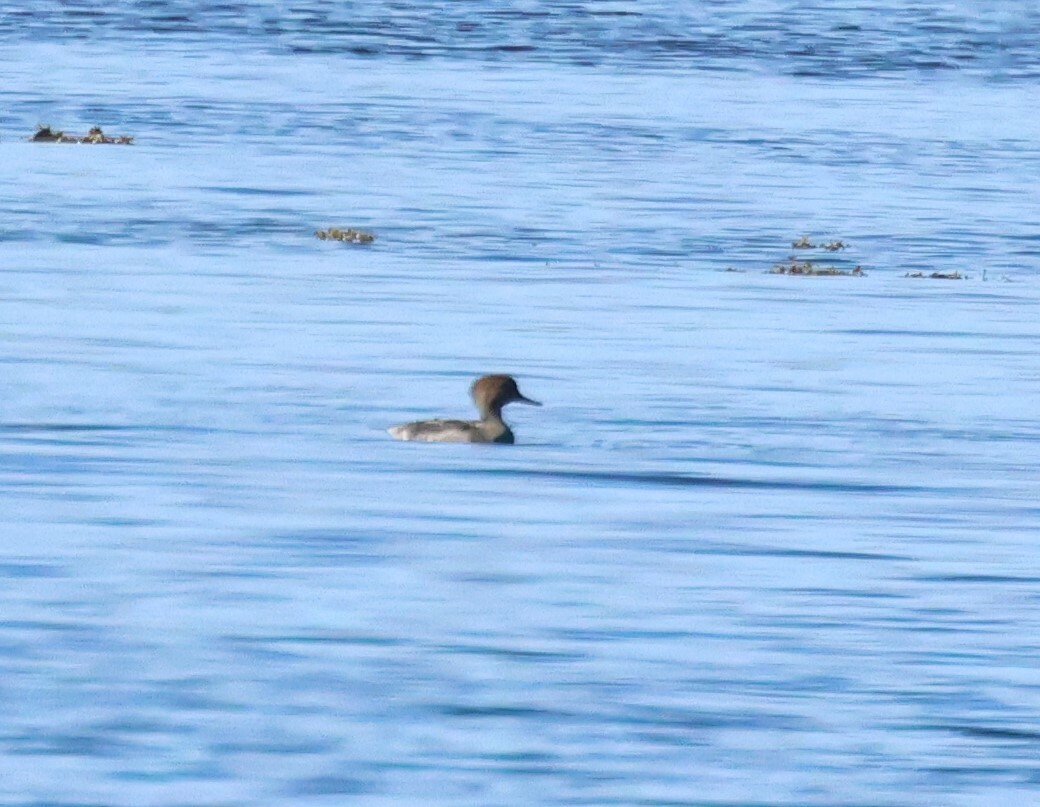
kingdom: Animalia
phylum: Chordata
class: Aves
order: Anseriformes
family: Anatidae
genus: Lophodytes
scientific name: Lophodytes cucullatus
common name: Hooded merganser
